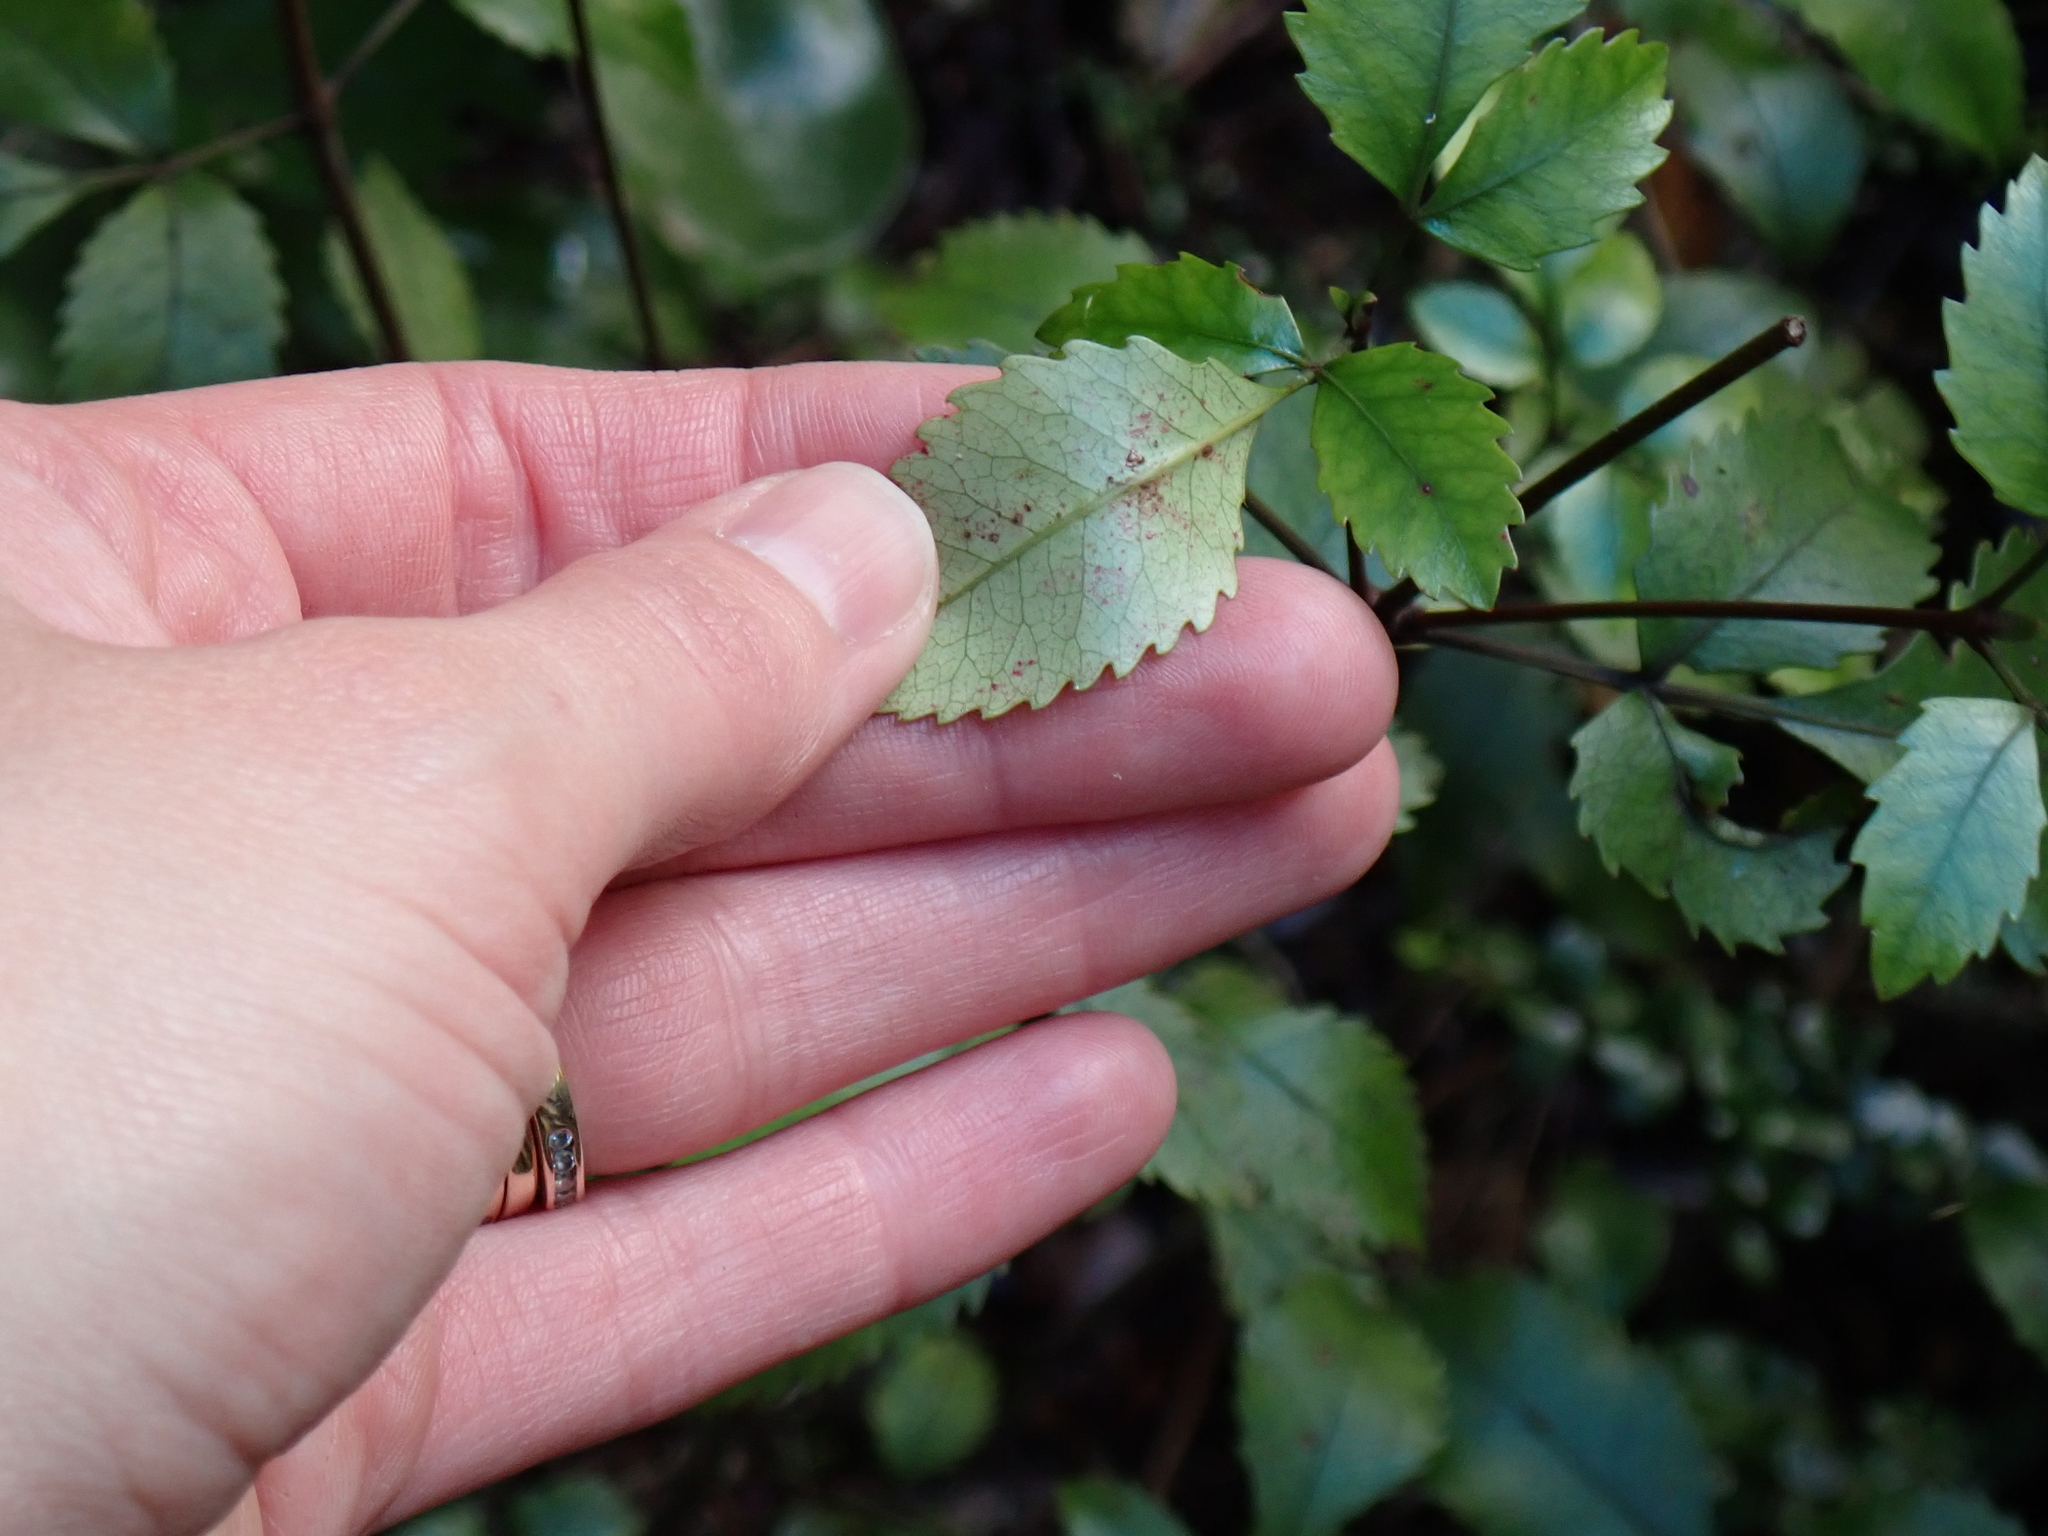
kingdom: Plantae
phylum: Tracheophyta
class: Magnoliopsida
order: Oxalidales
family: Cunoniaceae
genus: Pterophylla
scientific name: Pterophylla racemosa
